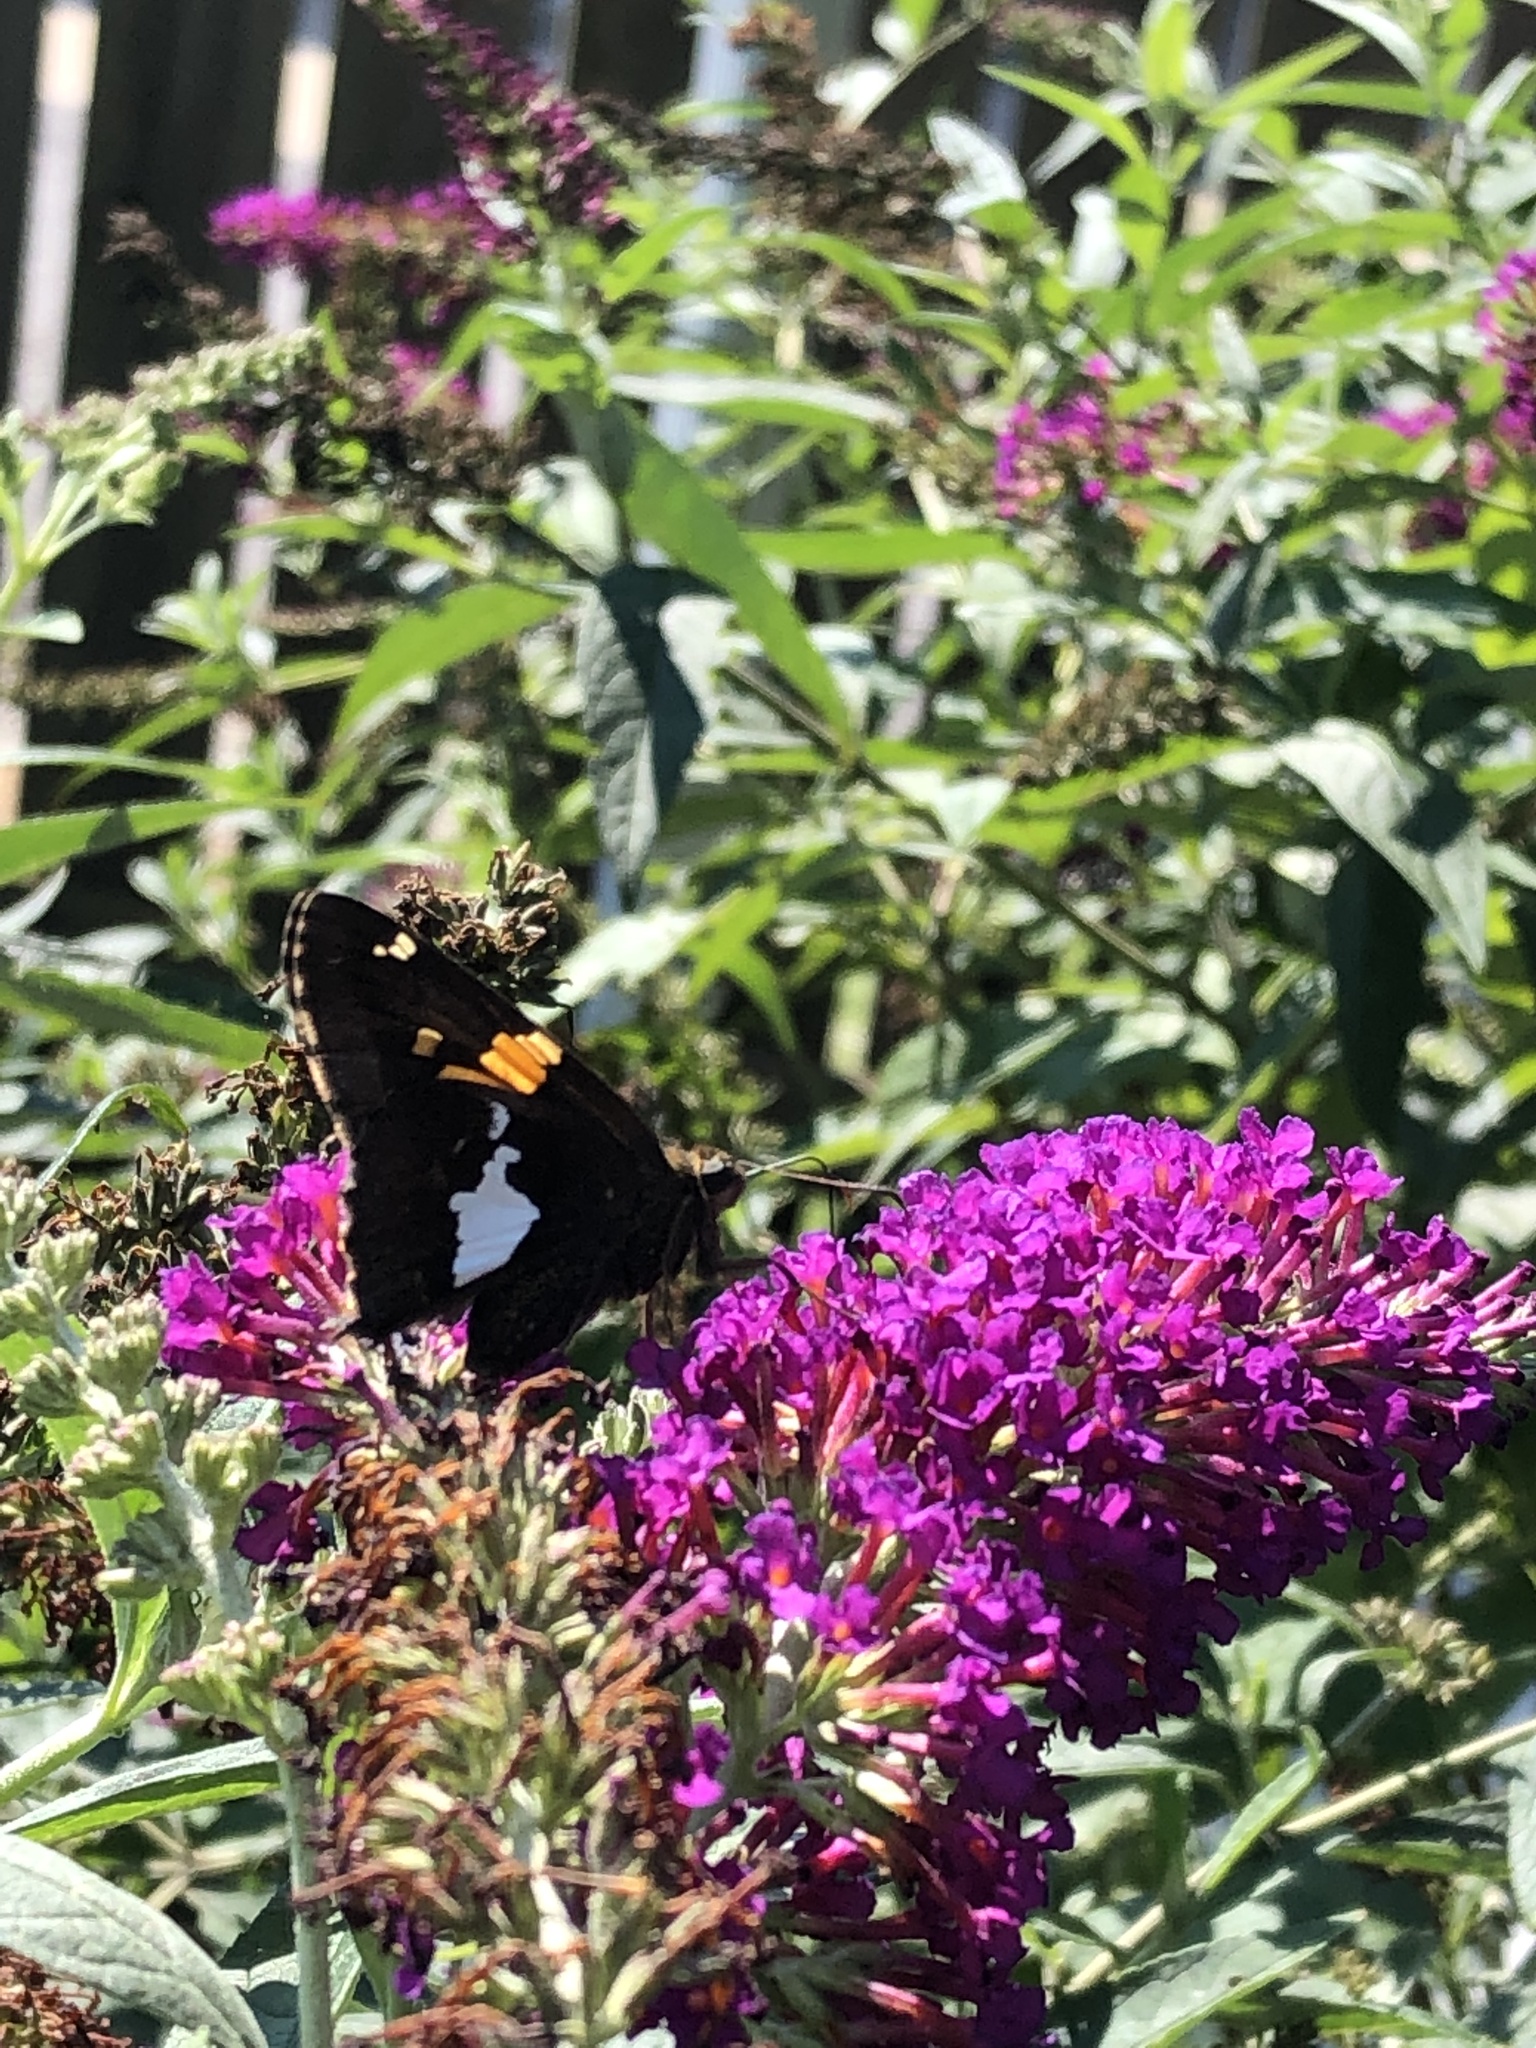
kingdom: Animalia
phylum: Arthropoda
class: Insecta
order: Lepidoptera
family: Hesperiidae
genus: Epargyreus
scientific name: Epargyreus clarus
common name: Silver-spotted skipper
